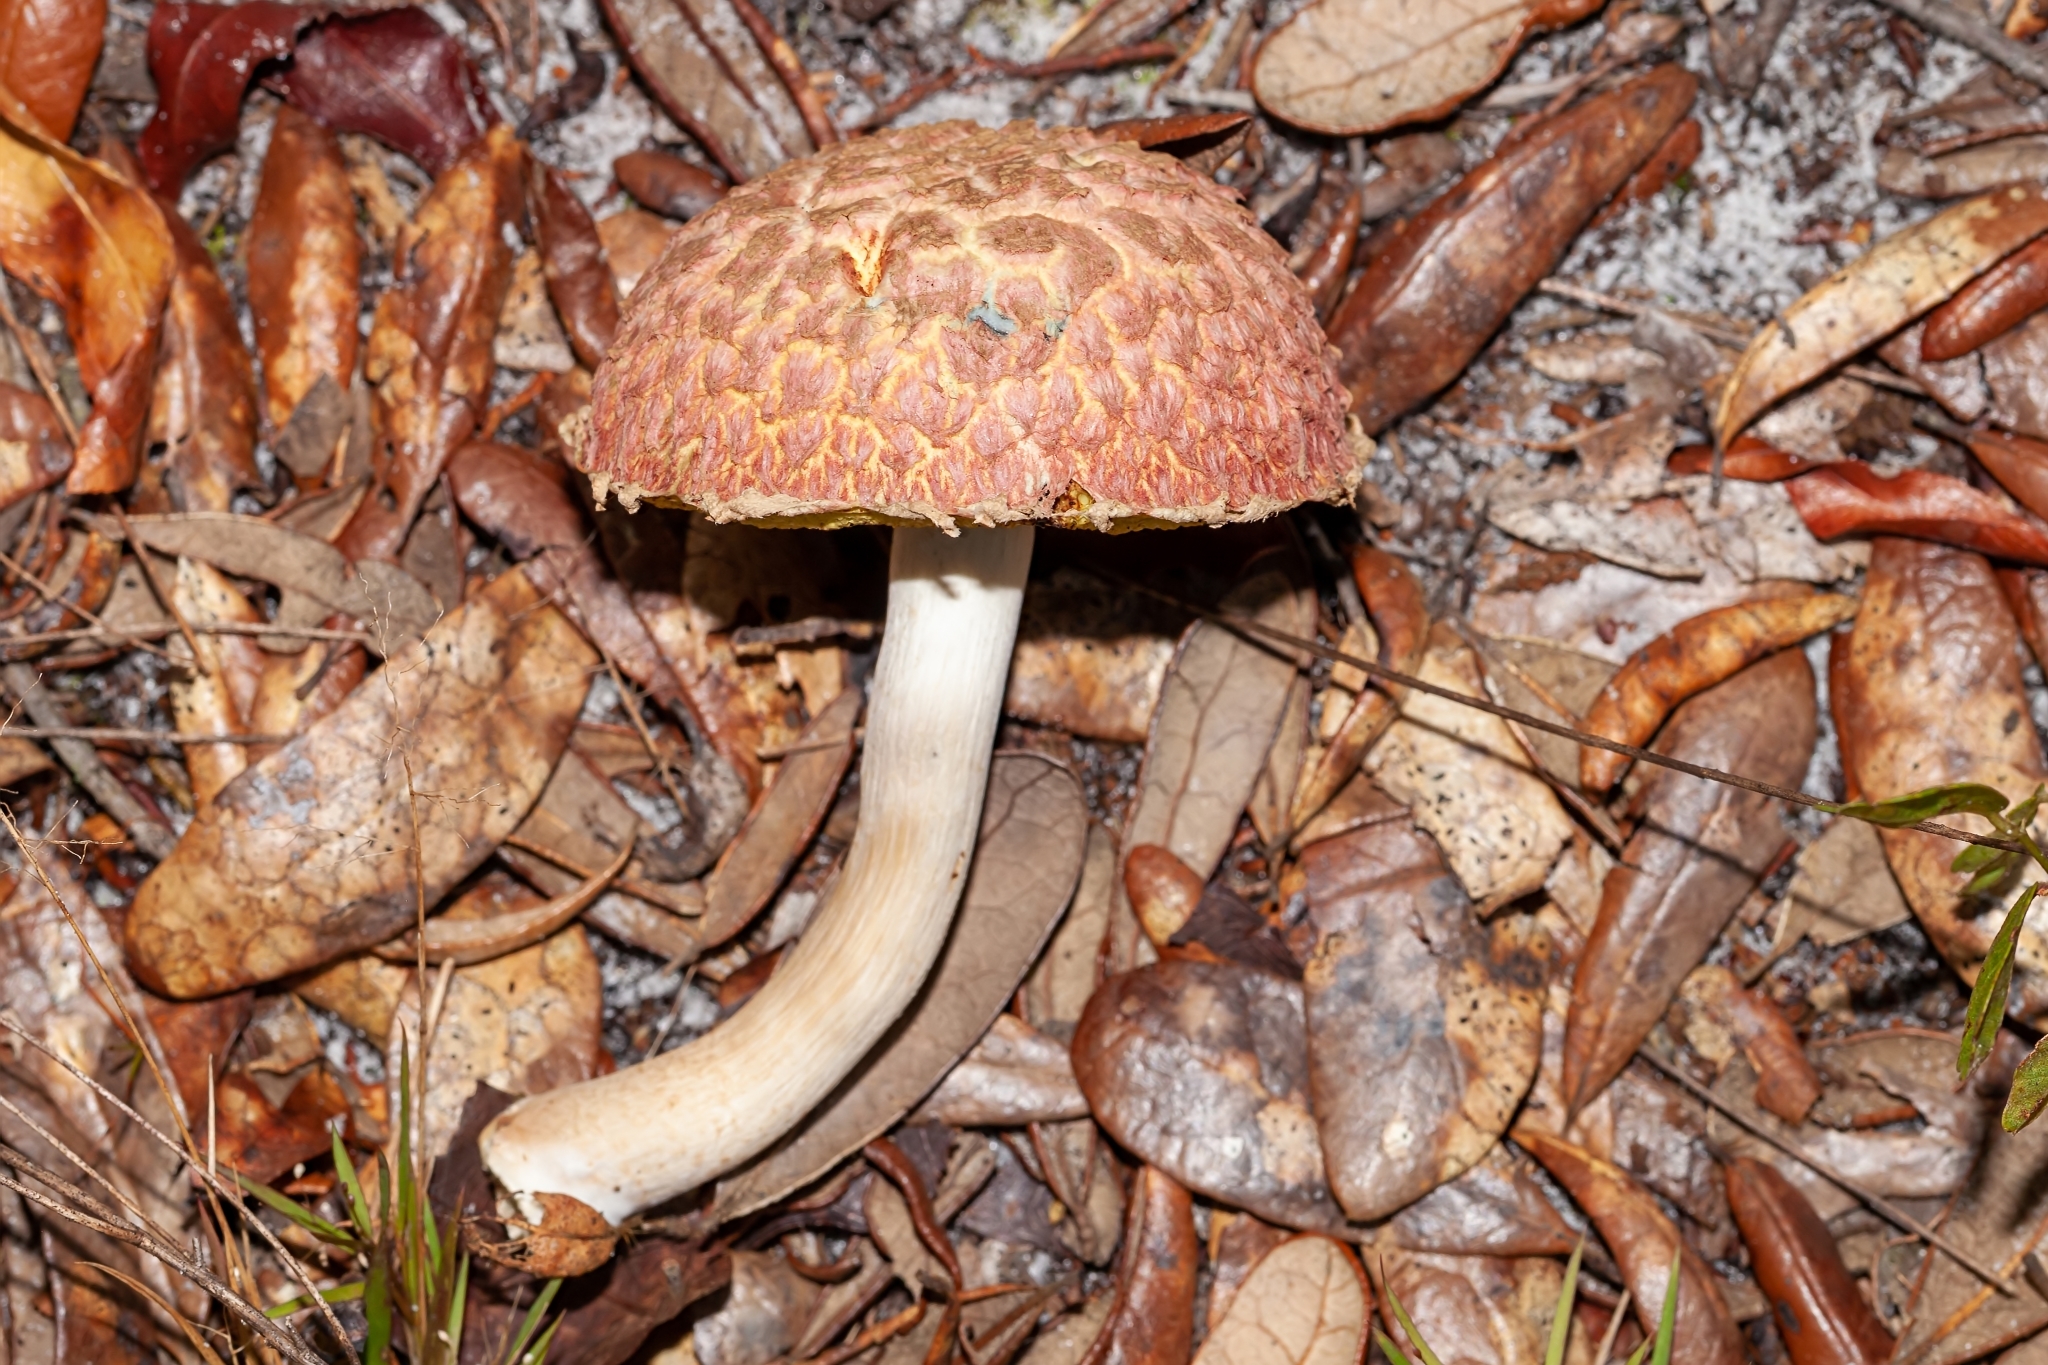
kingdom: Fungi
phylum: Basidiomycota
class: Agaricomycetes
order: Boletales
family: Boletaceae
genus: Boletellus
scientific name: Boletellus ananas
